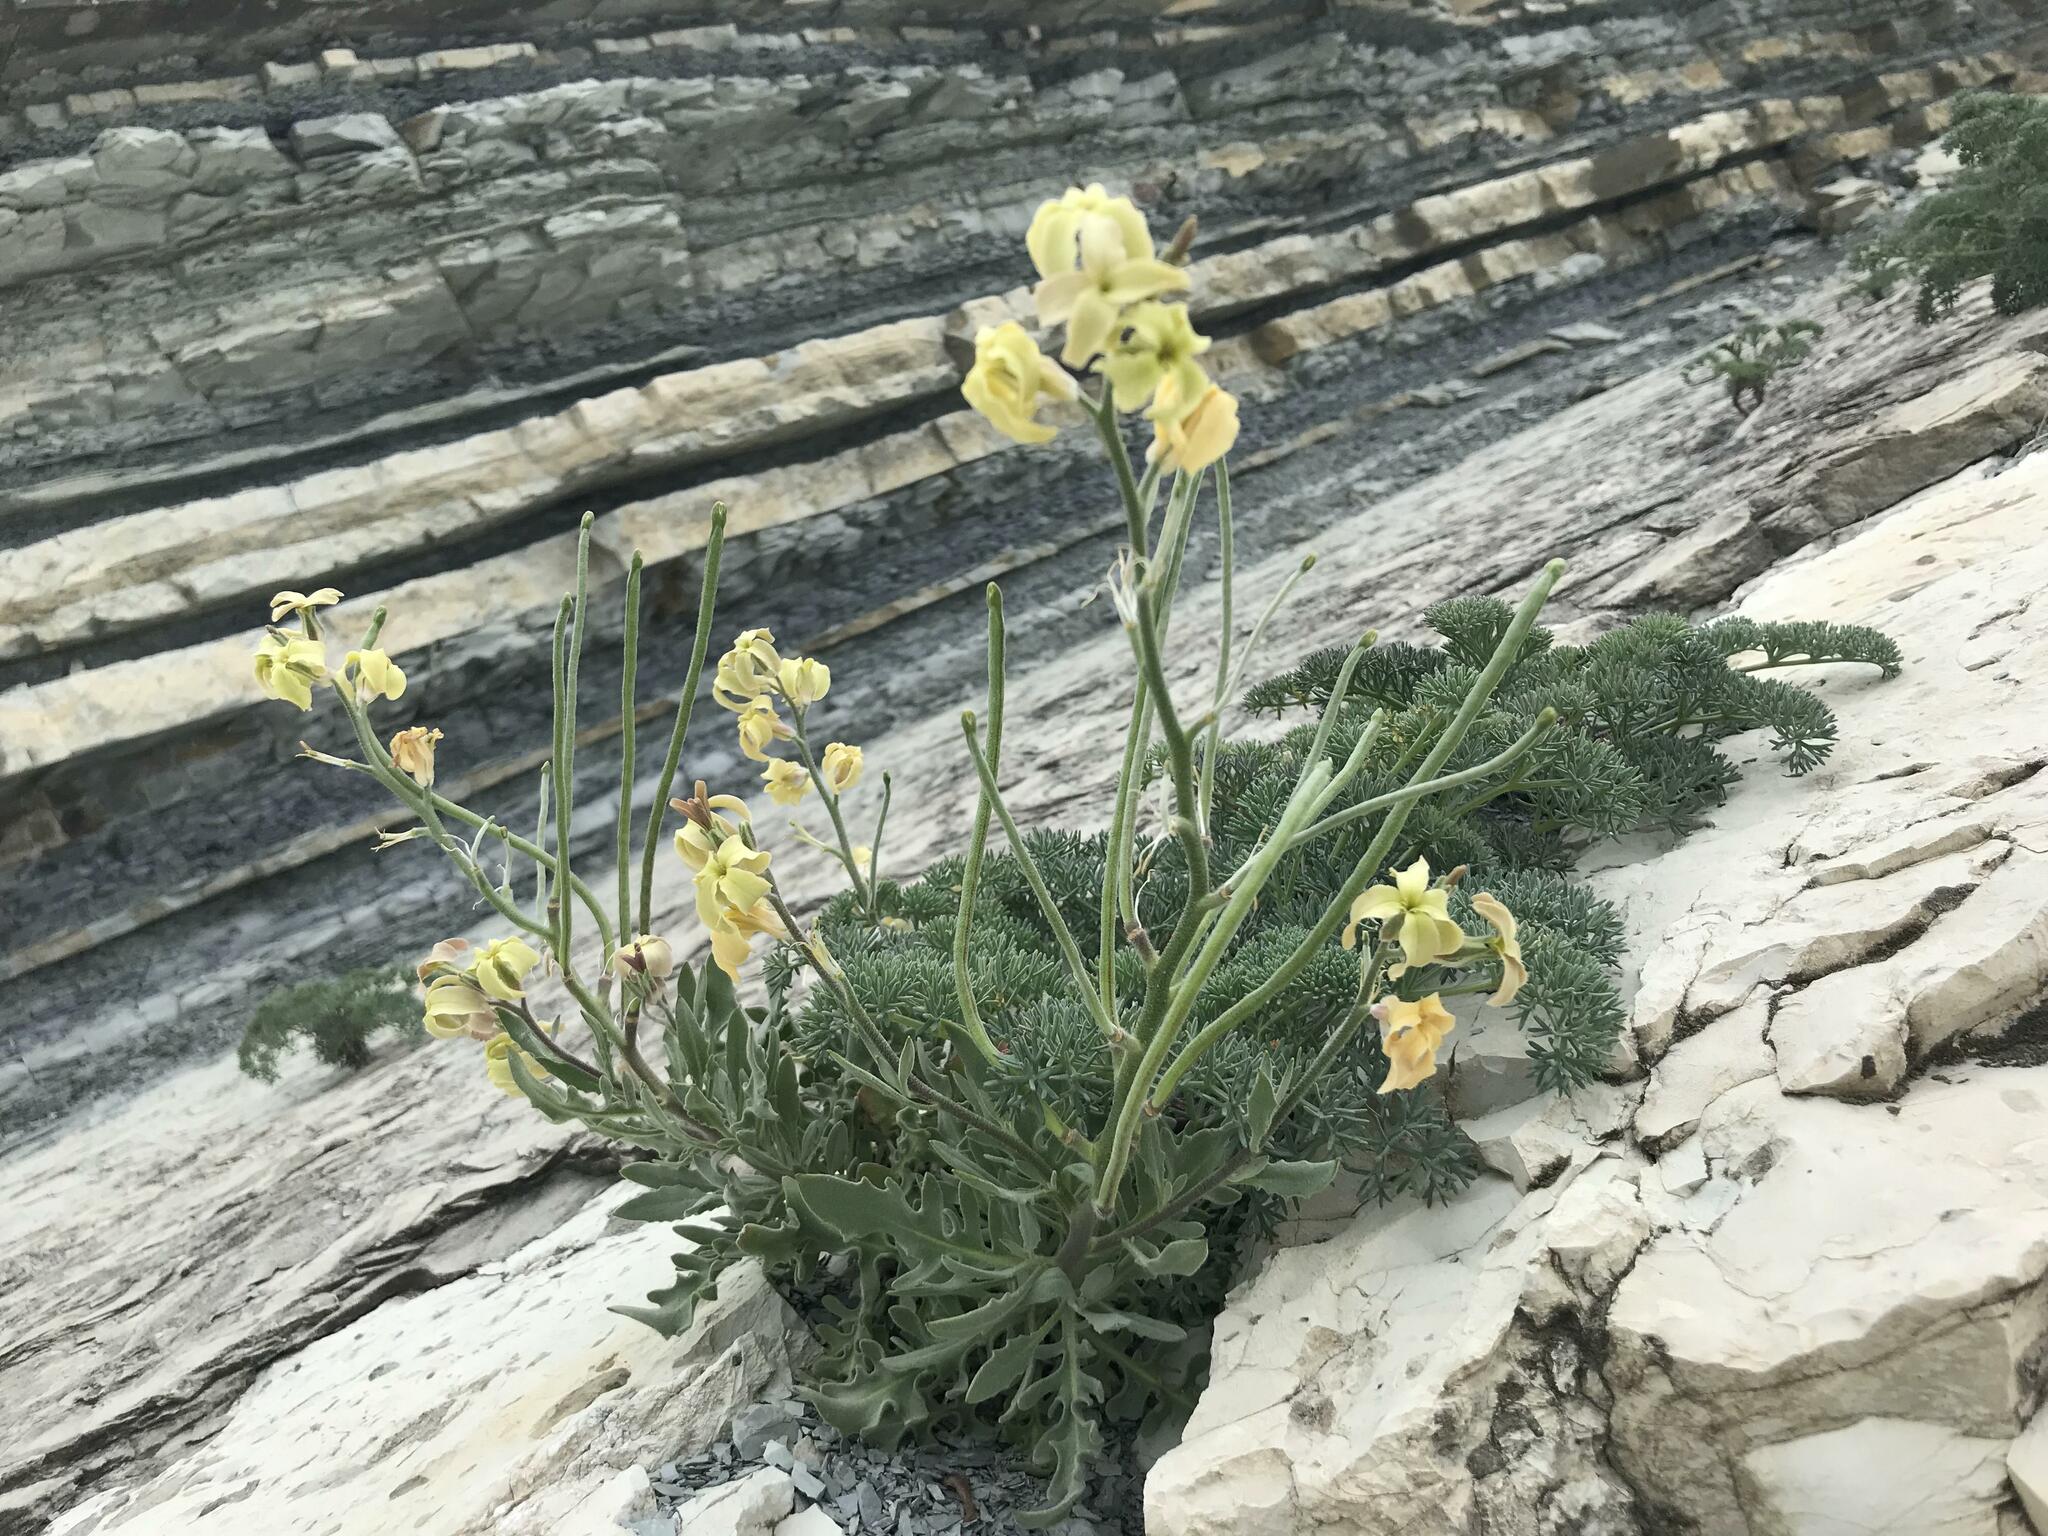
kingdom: Plantae
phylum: Tracheophyta
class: Magnoliopsida
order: Brassicales
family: Brassicaceae
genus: Matthiola
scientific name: Matthiola odoratissima
